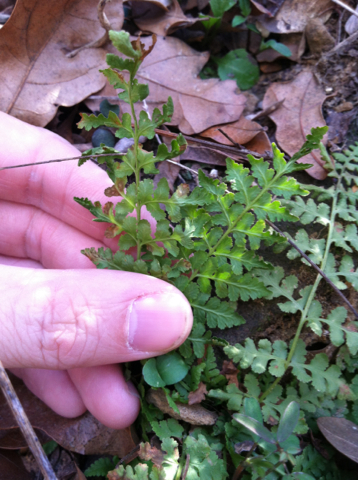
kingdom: Plantae
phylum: Tracheophyta
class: Polypodiopsida
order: Polypodiales
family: Woodsiaceae
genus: Physematium
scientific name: Physematium obtusum
